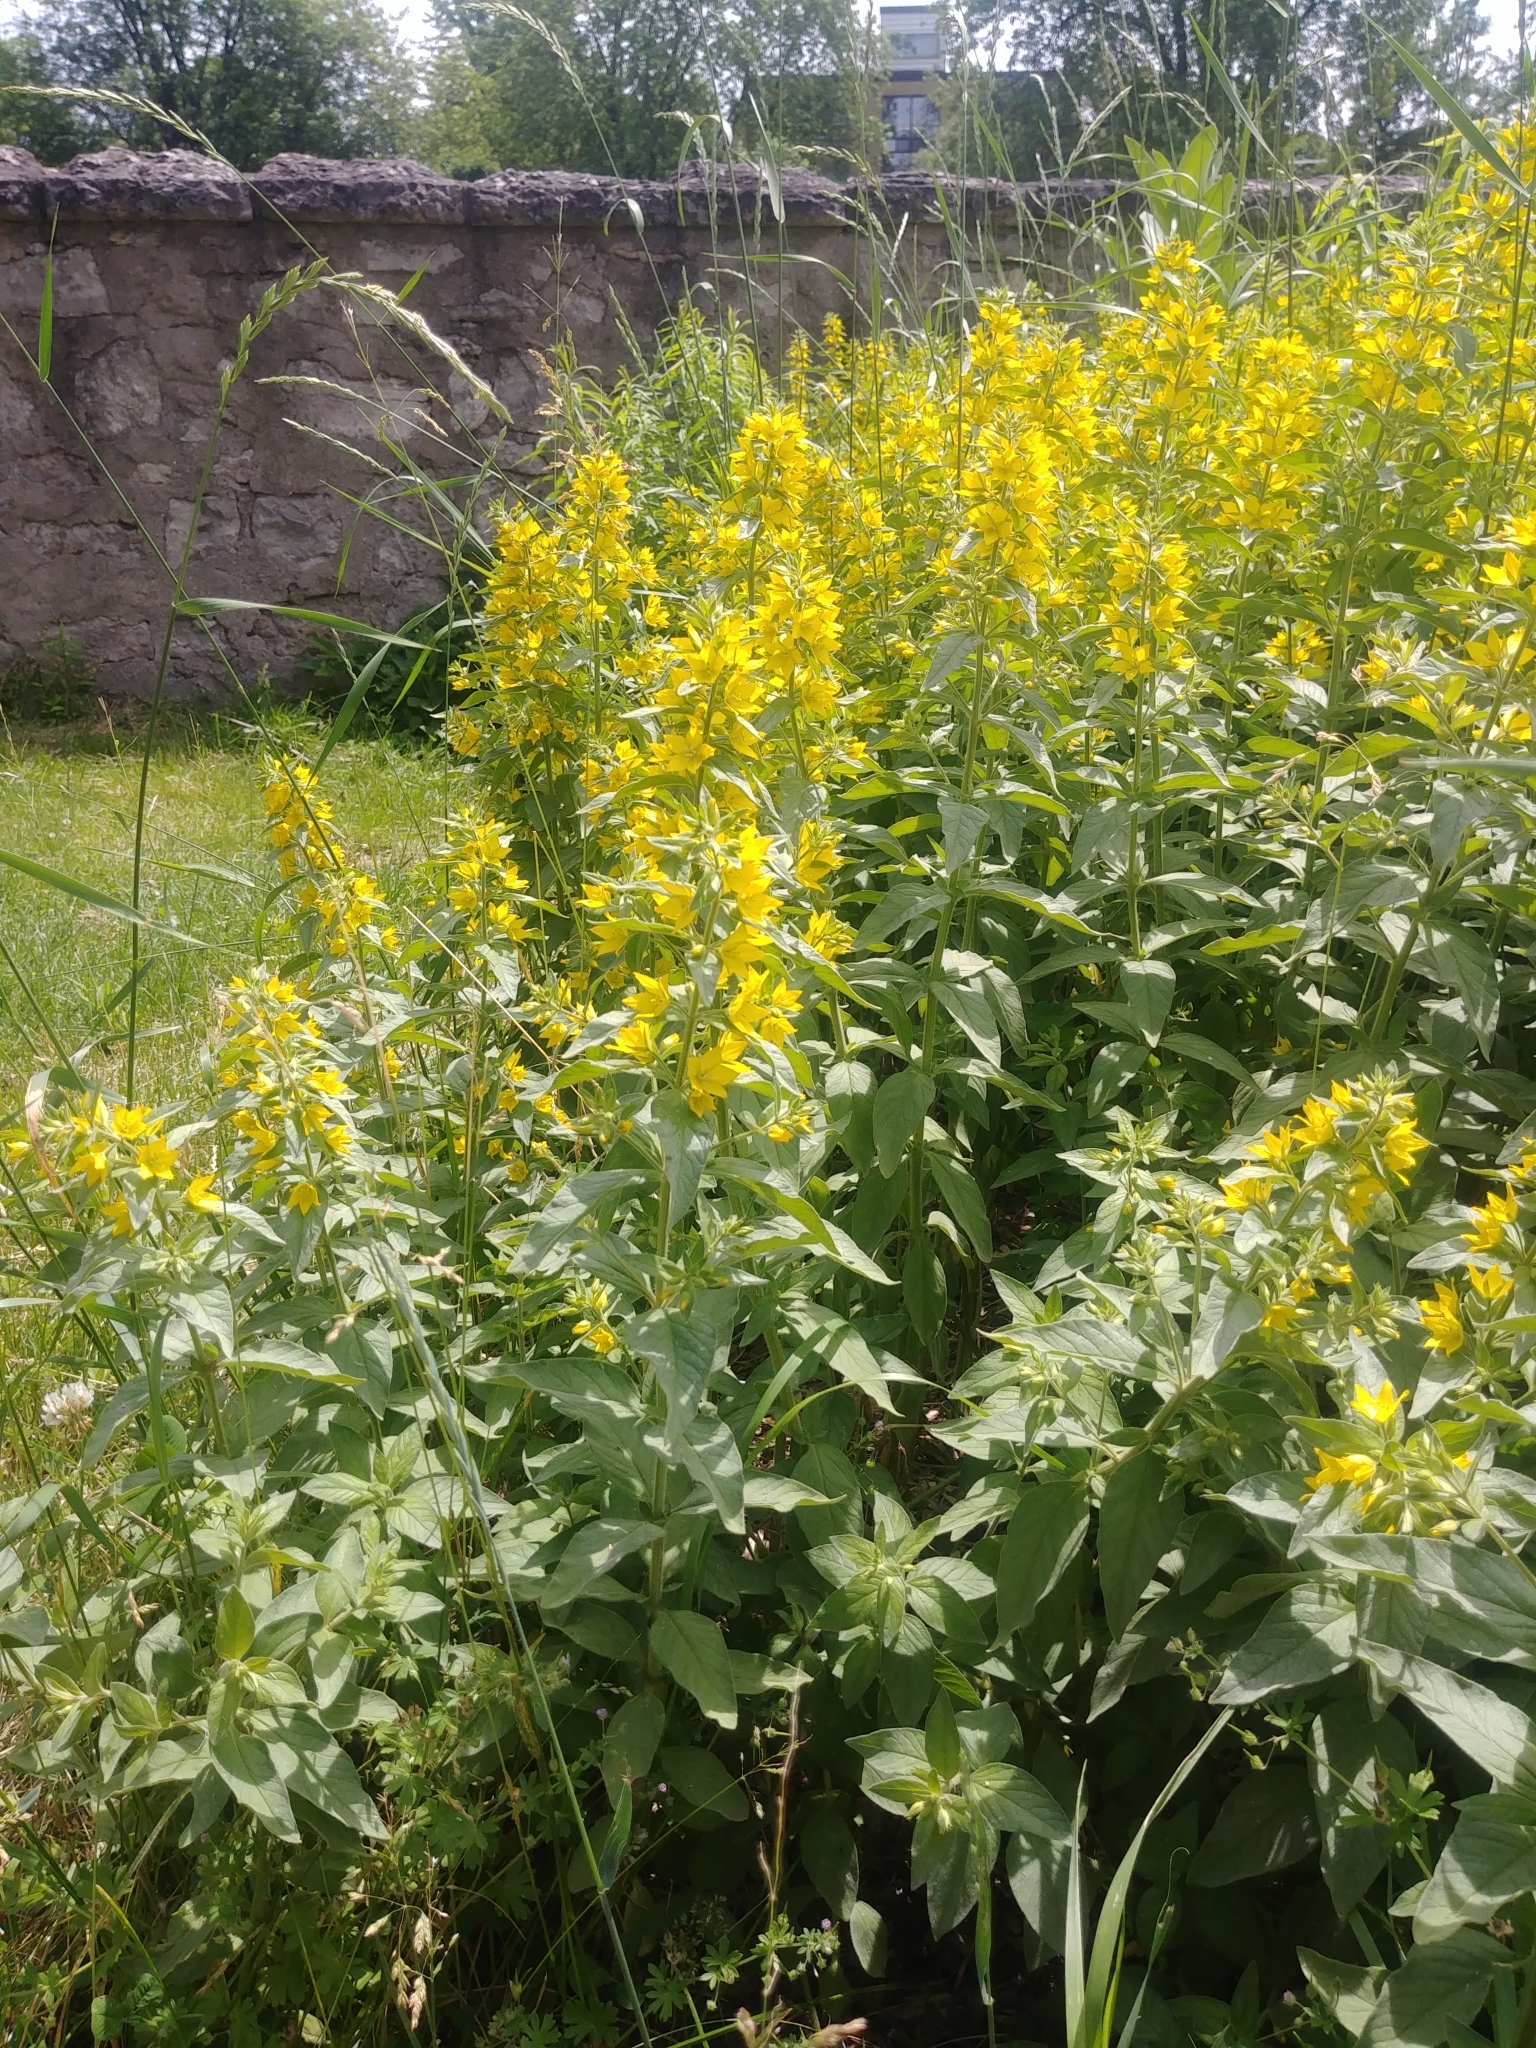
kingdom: Plantae
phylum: Tracheophyta
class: Magnoliopsida
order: Ericales
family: Primulaceae
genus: Lysimachia
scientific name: Lysimachia punctata
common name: Dotted loosestrife
